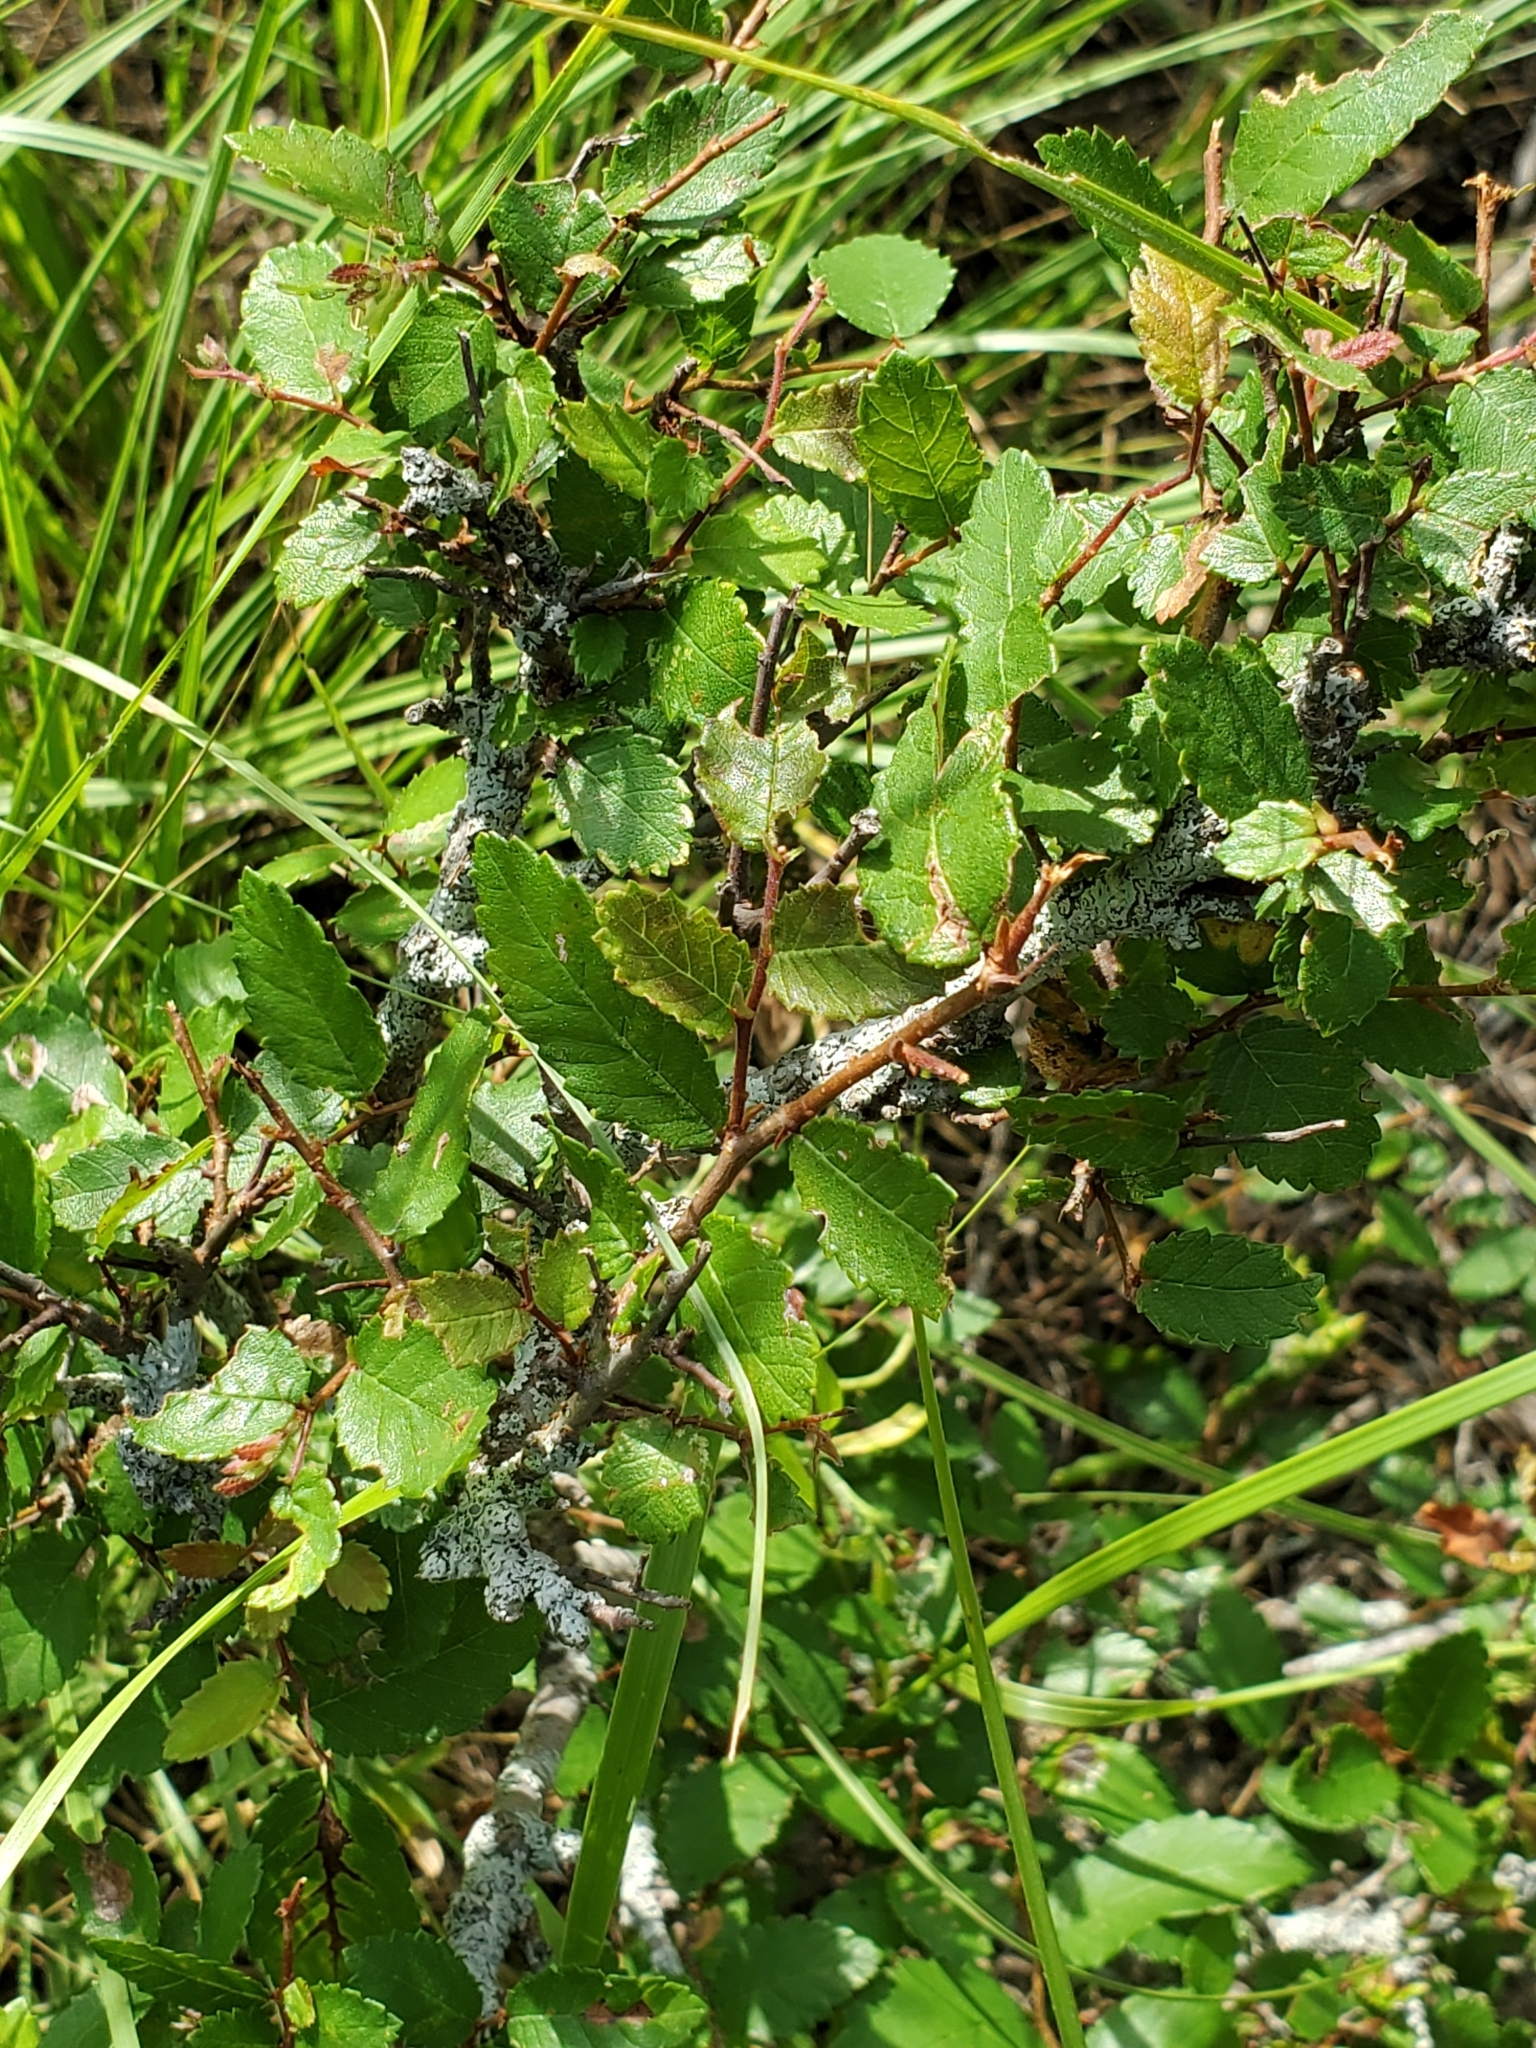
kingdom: Plantae
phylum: Tracheophyta
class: Magnoliopsida
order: Rosales
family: Ulmaceae
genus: Ulmus
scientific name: Ulmus crassifolia
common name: Basket elm
